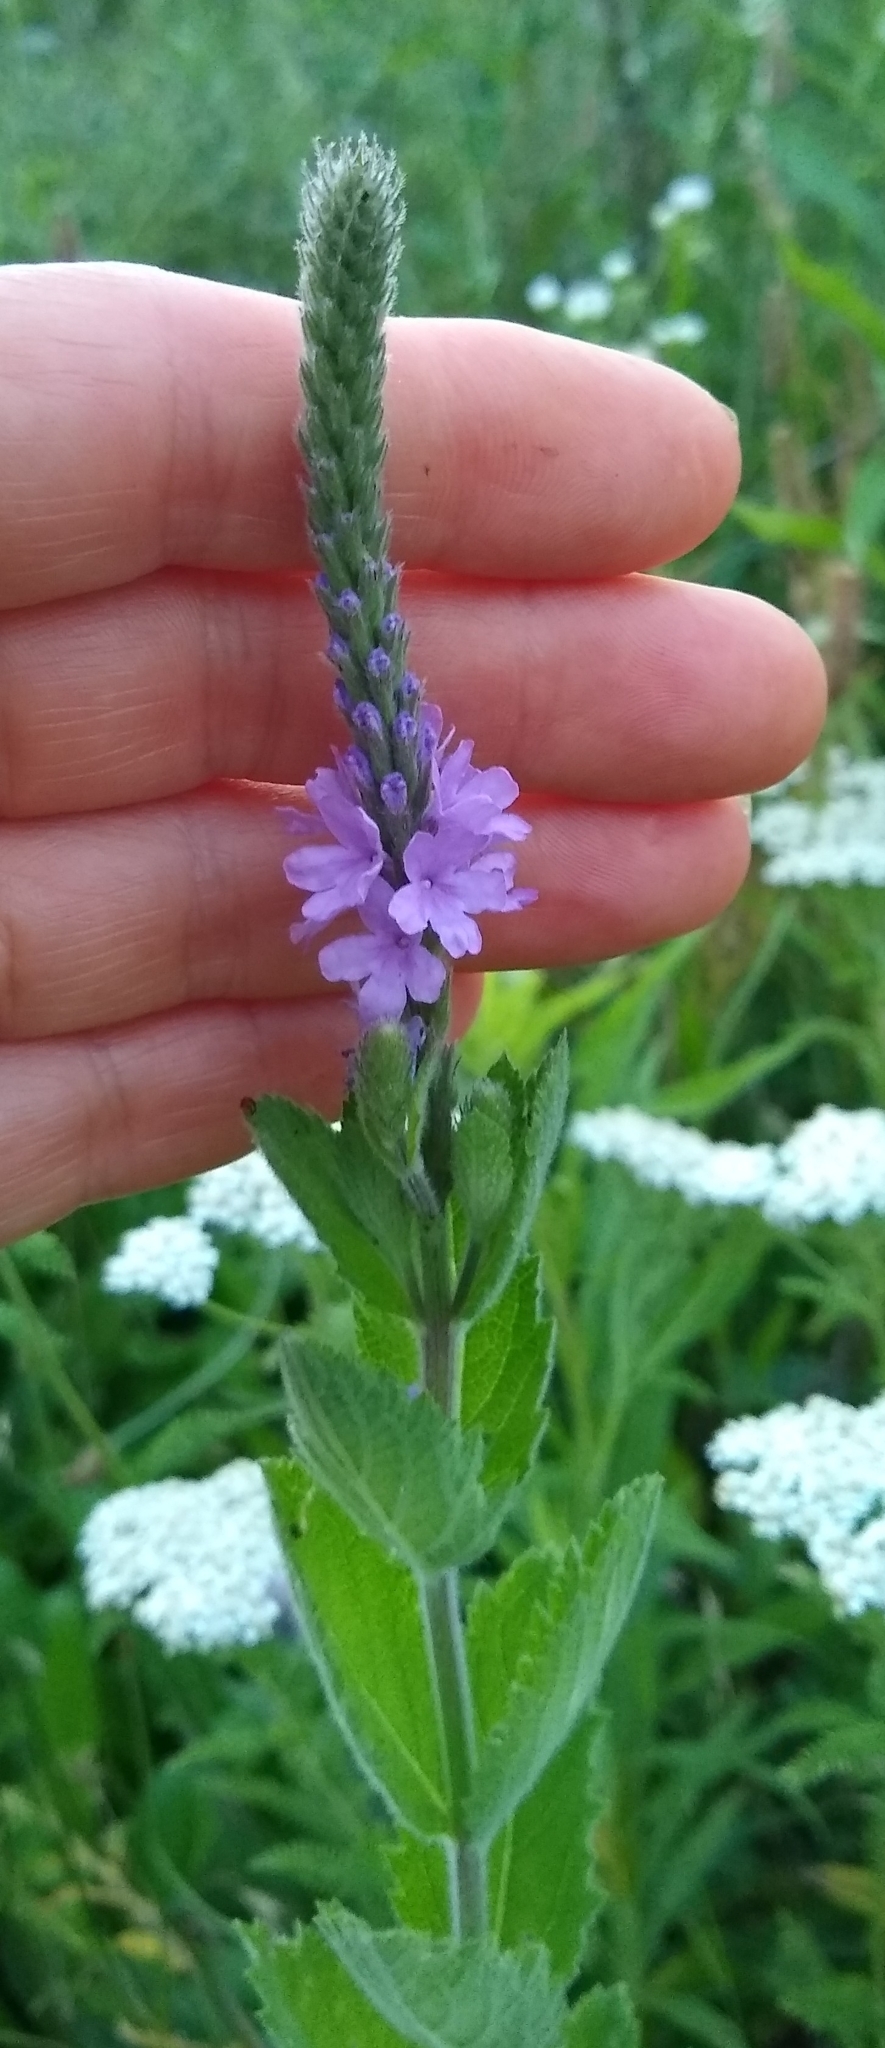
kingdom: Plantae
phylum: Tracheophyta
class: Magnoliopsida
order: Lamiales
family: Verbenaceae
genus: Verbena
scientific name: Verbena stricta
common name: Hoary vervain
